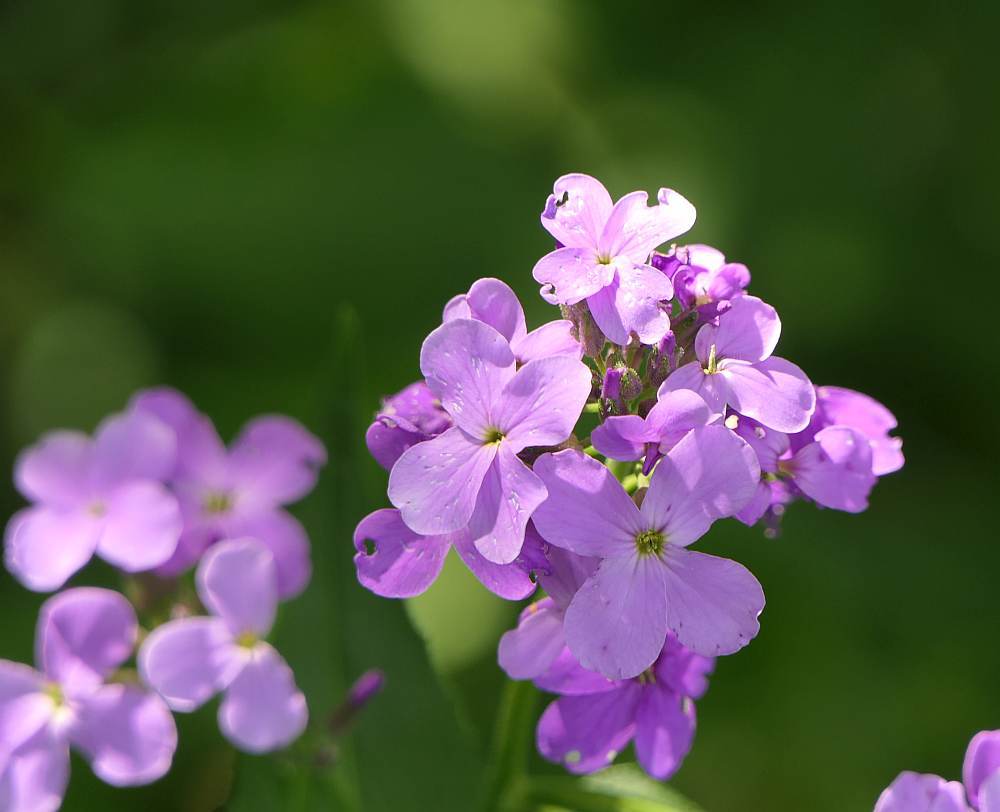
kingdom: Plantae
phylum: Tracheophyta
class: Magnoliopsida
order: Brassicales
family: Brassicaceae
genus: Hesperis
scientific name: Hesperis matronalis
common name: Dame's-violet
